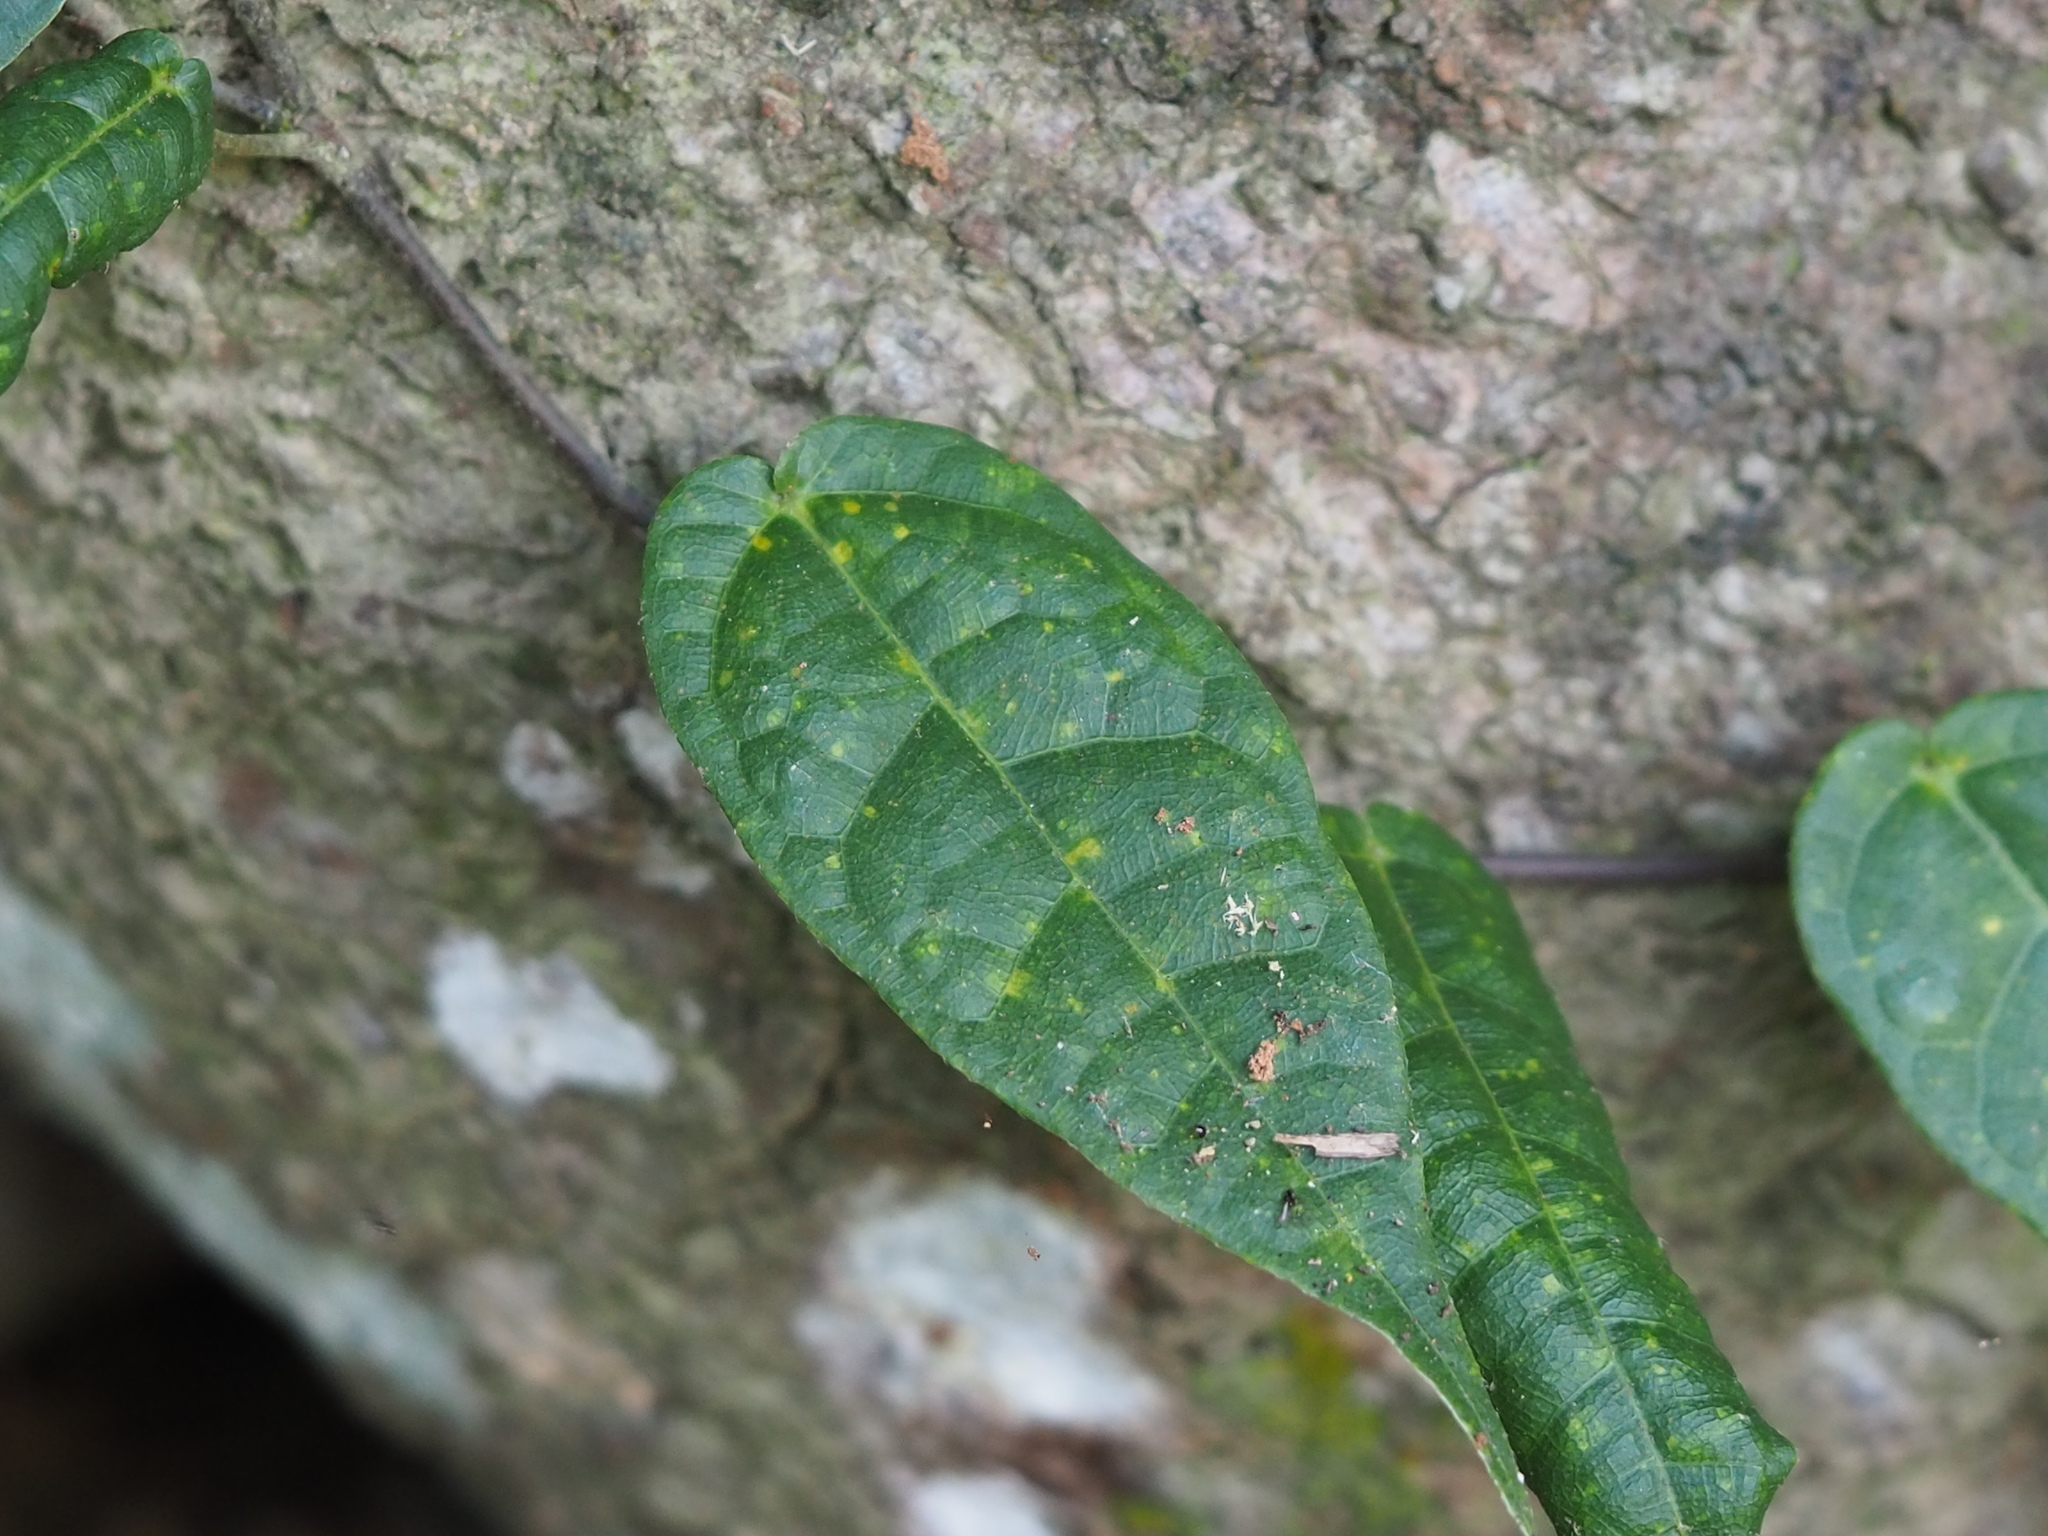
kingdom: Plantae
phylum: Tracheophyta
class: Magnoliopsida
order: Rosales
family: Moraceae
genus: Ficus
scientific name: Ficus sarmentosa
